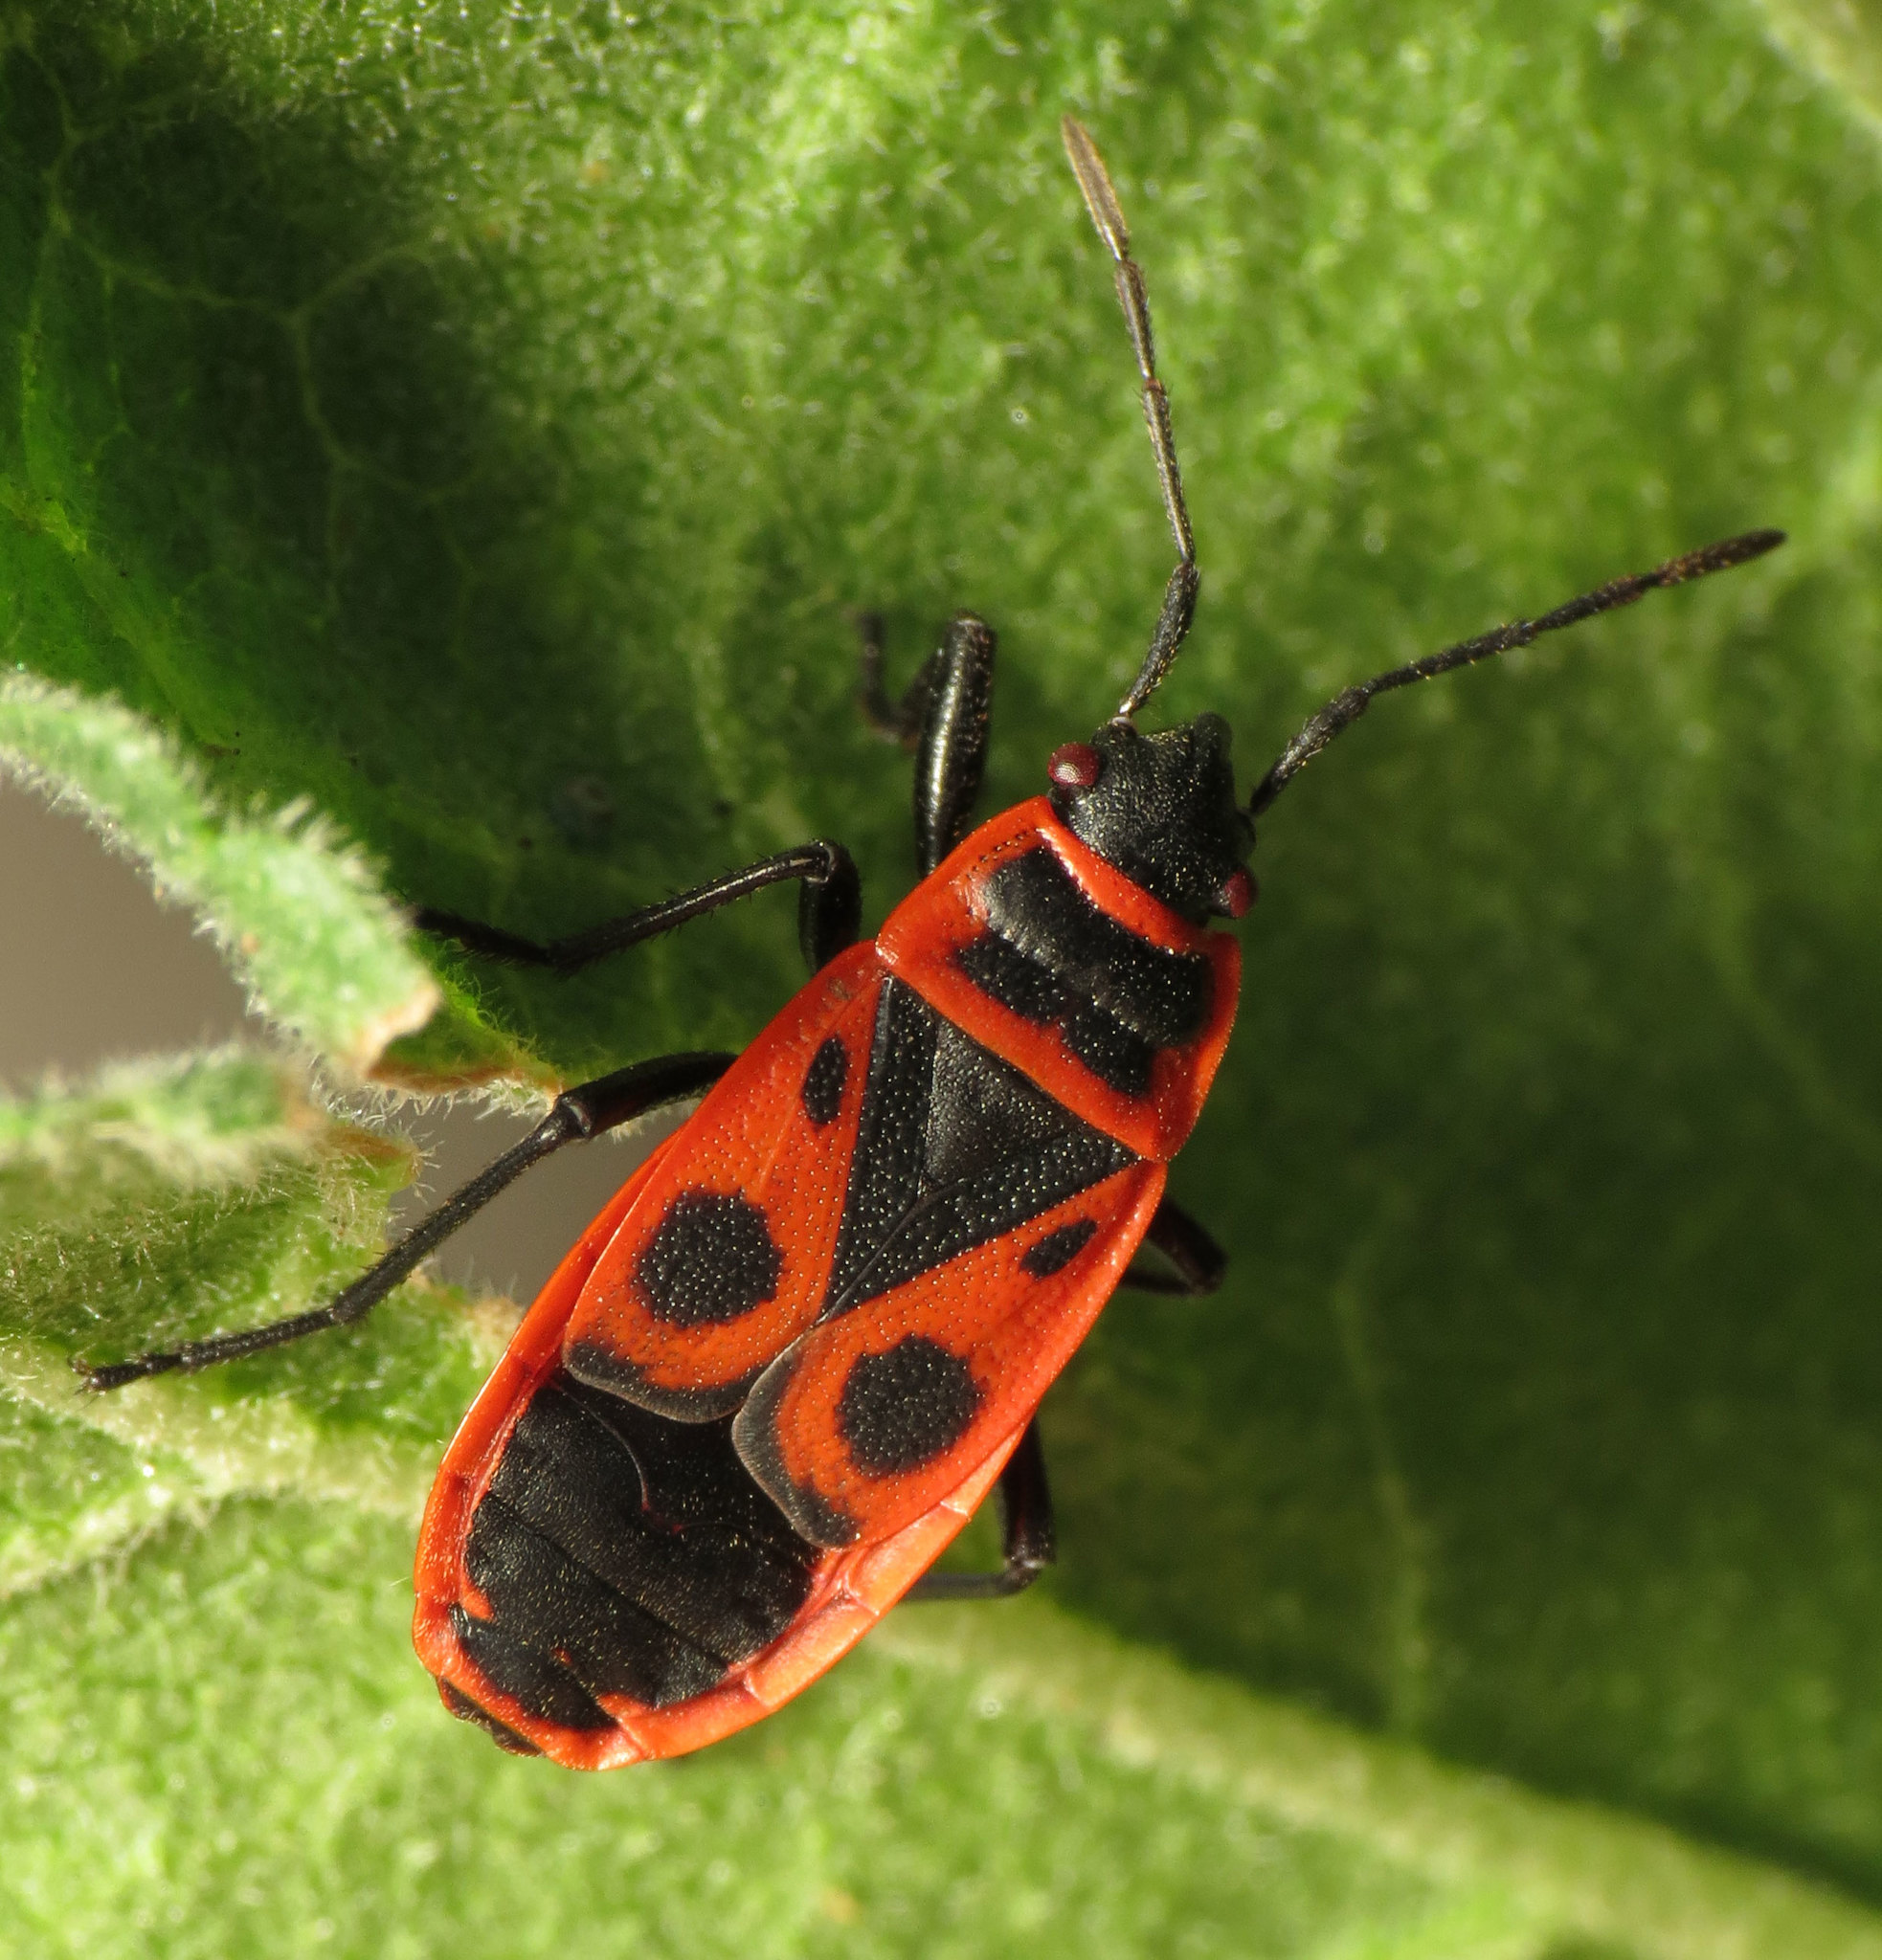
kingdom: Animalia
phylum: Arthropoda
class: Insecta
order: Hemiptera
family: Pyrrhocoridae
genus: Pyrrhocoris
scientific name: Pyrrhocoris apterus
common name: Firebug
